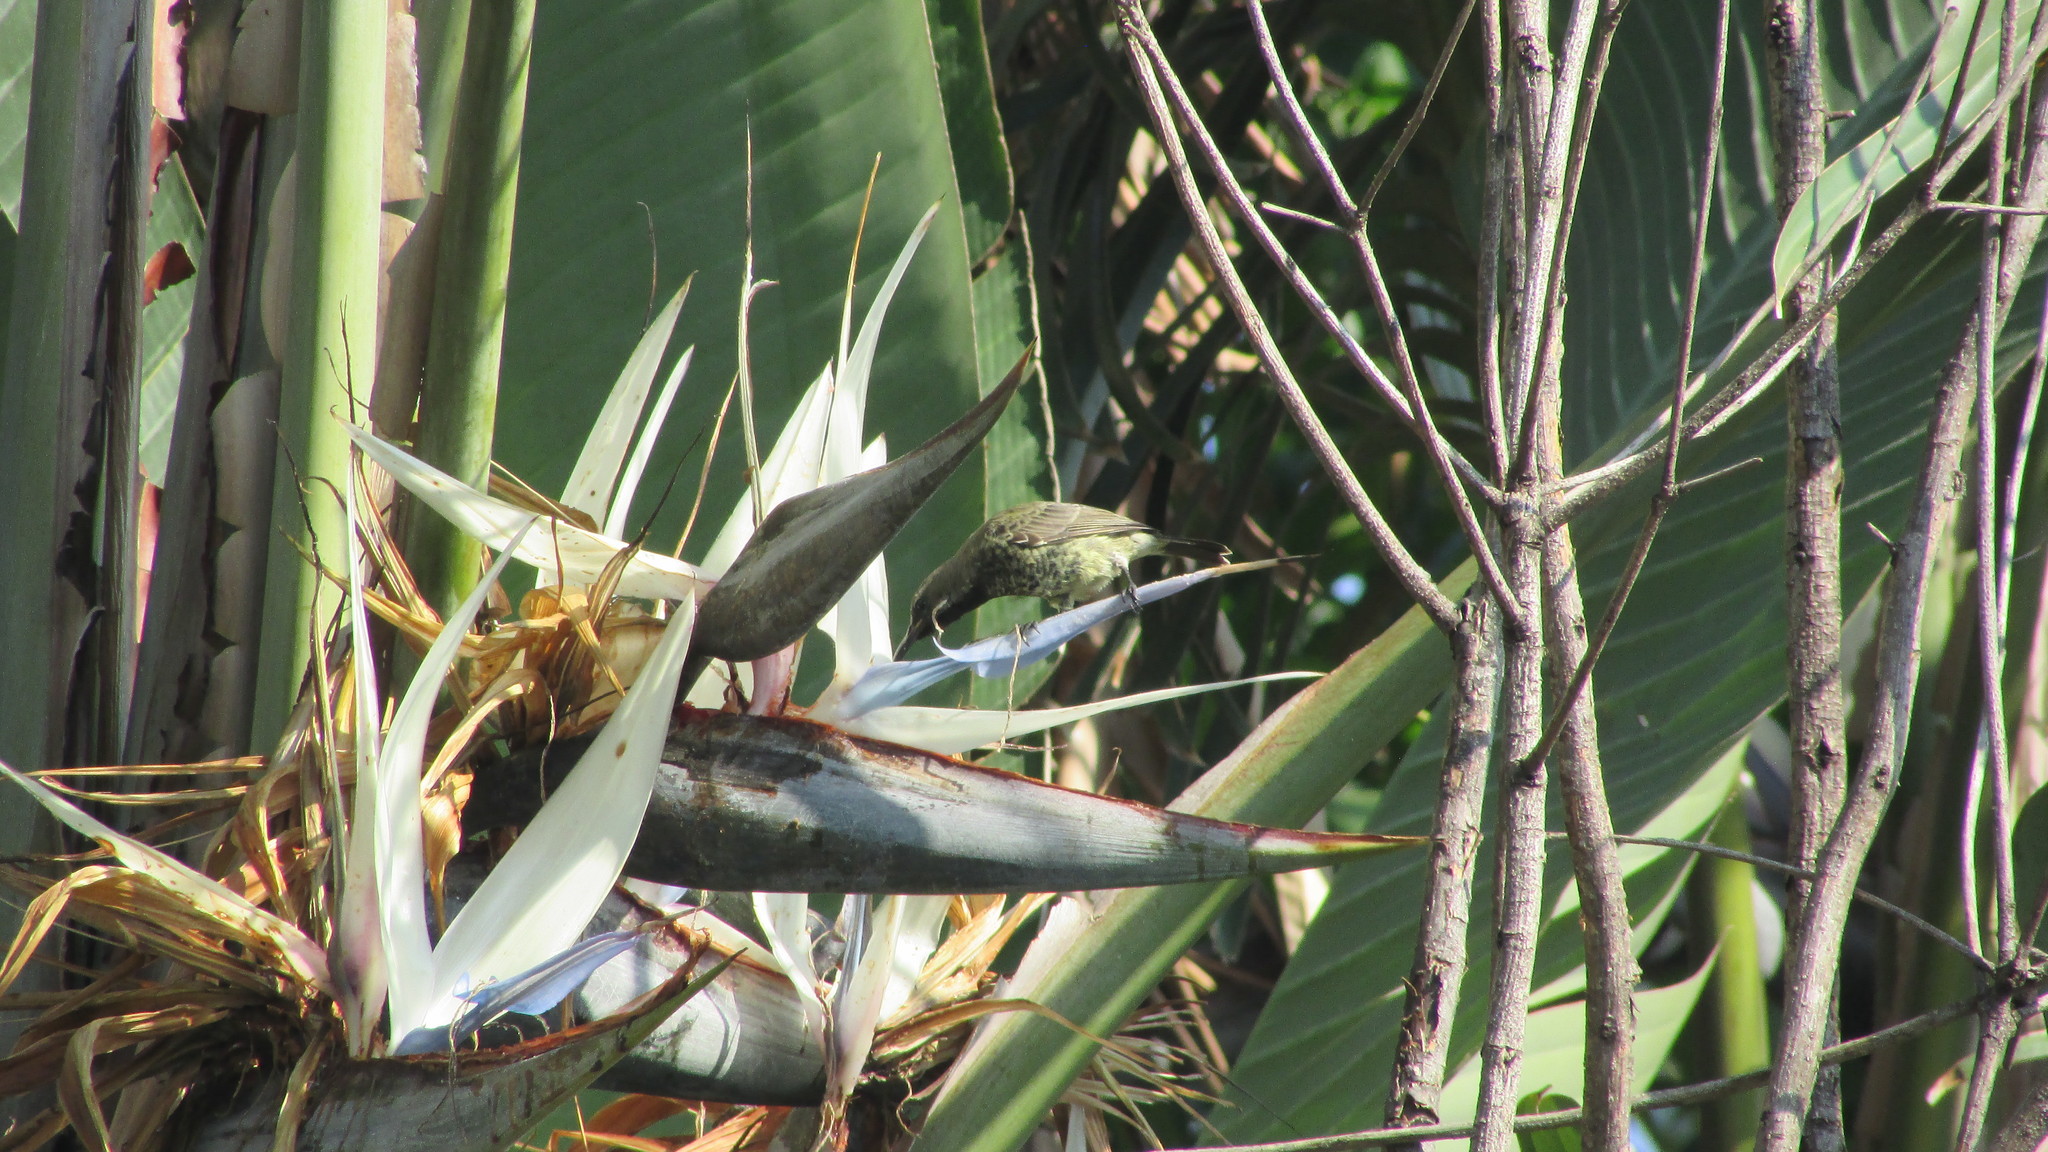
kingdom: Animalia
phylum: Chordata
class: Aves
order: Passeriformes
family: Nectariniidae
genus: Chalcomitra
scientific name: Chalcomitra amethystina
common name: Amethyst sunbird
